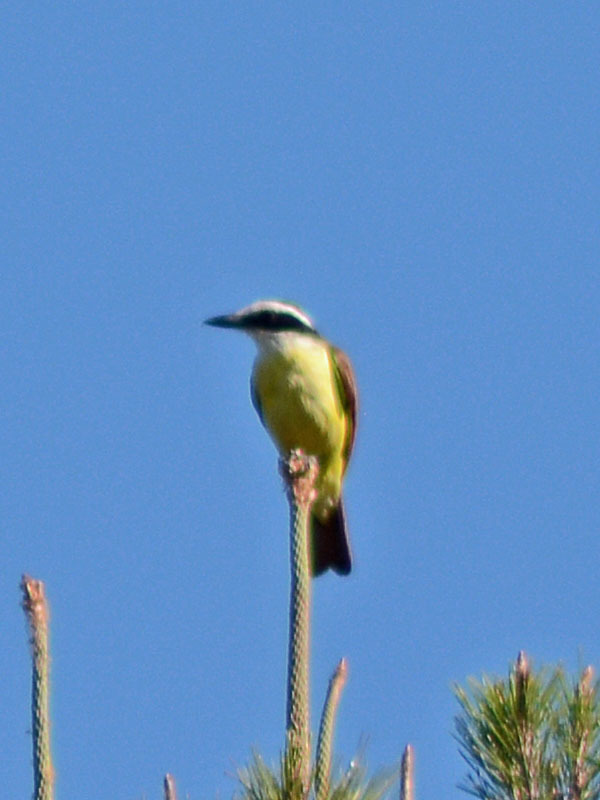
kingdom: Animalia
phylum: Chordata
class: Aves
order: Passeriformes
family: Tyrannidae
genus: Pitangus
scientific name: Pitangus sulphuratus
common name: Great kiskadee
